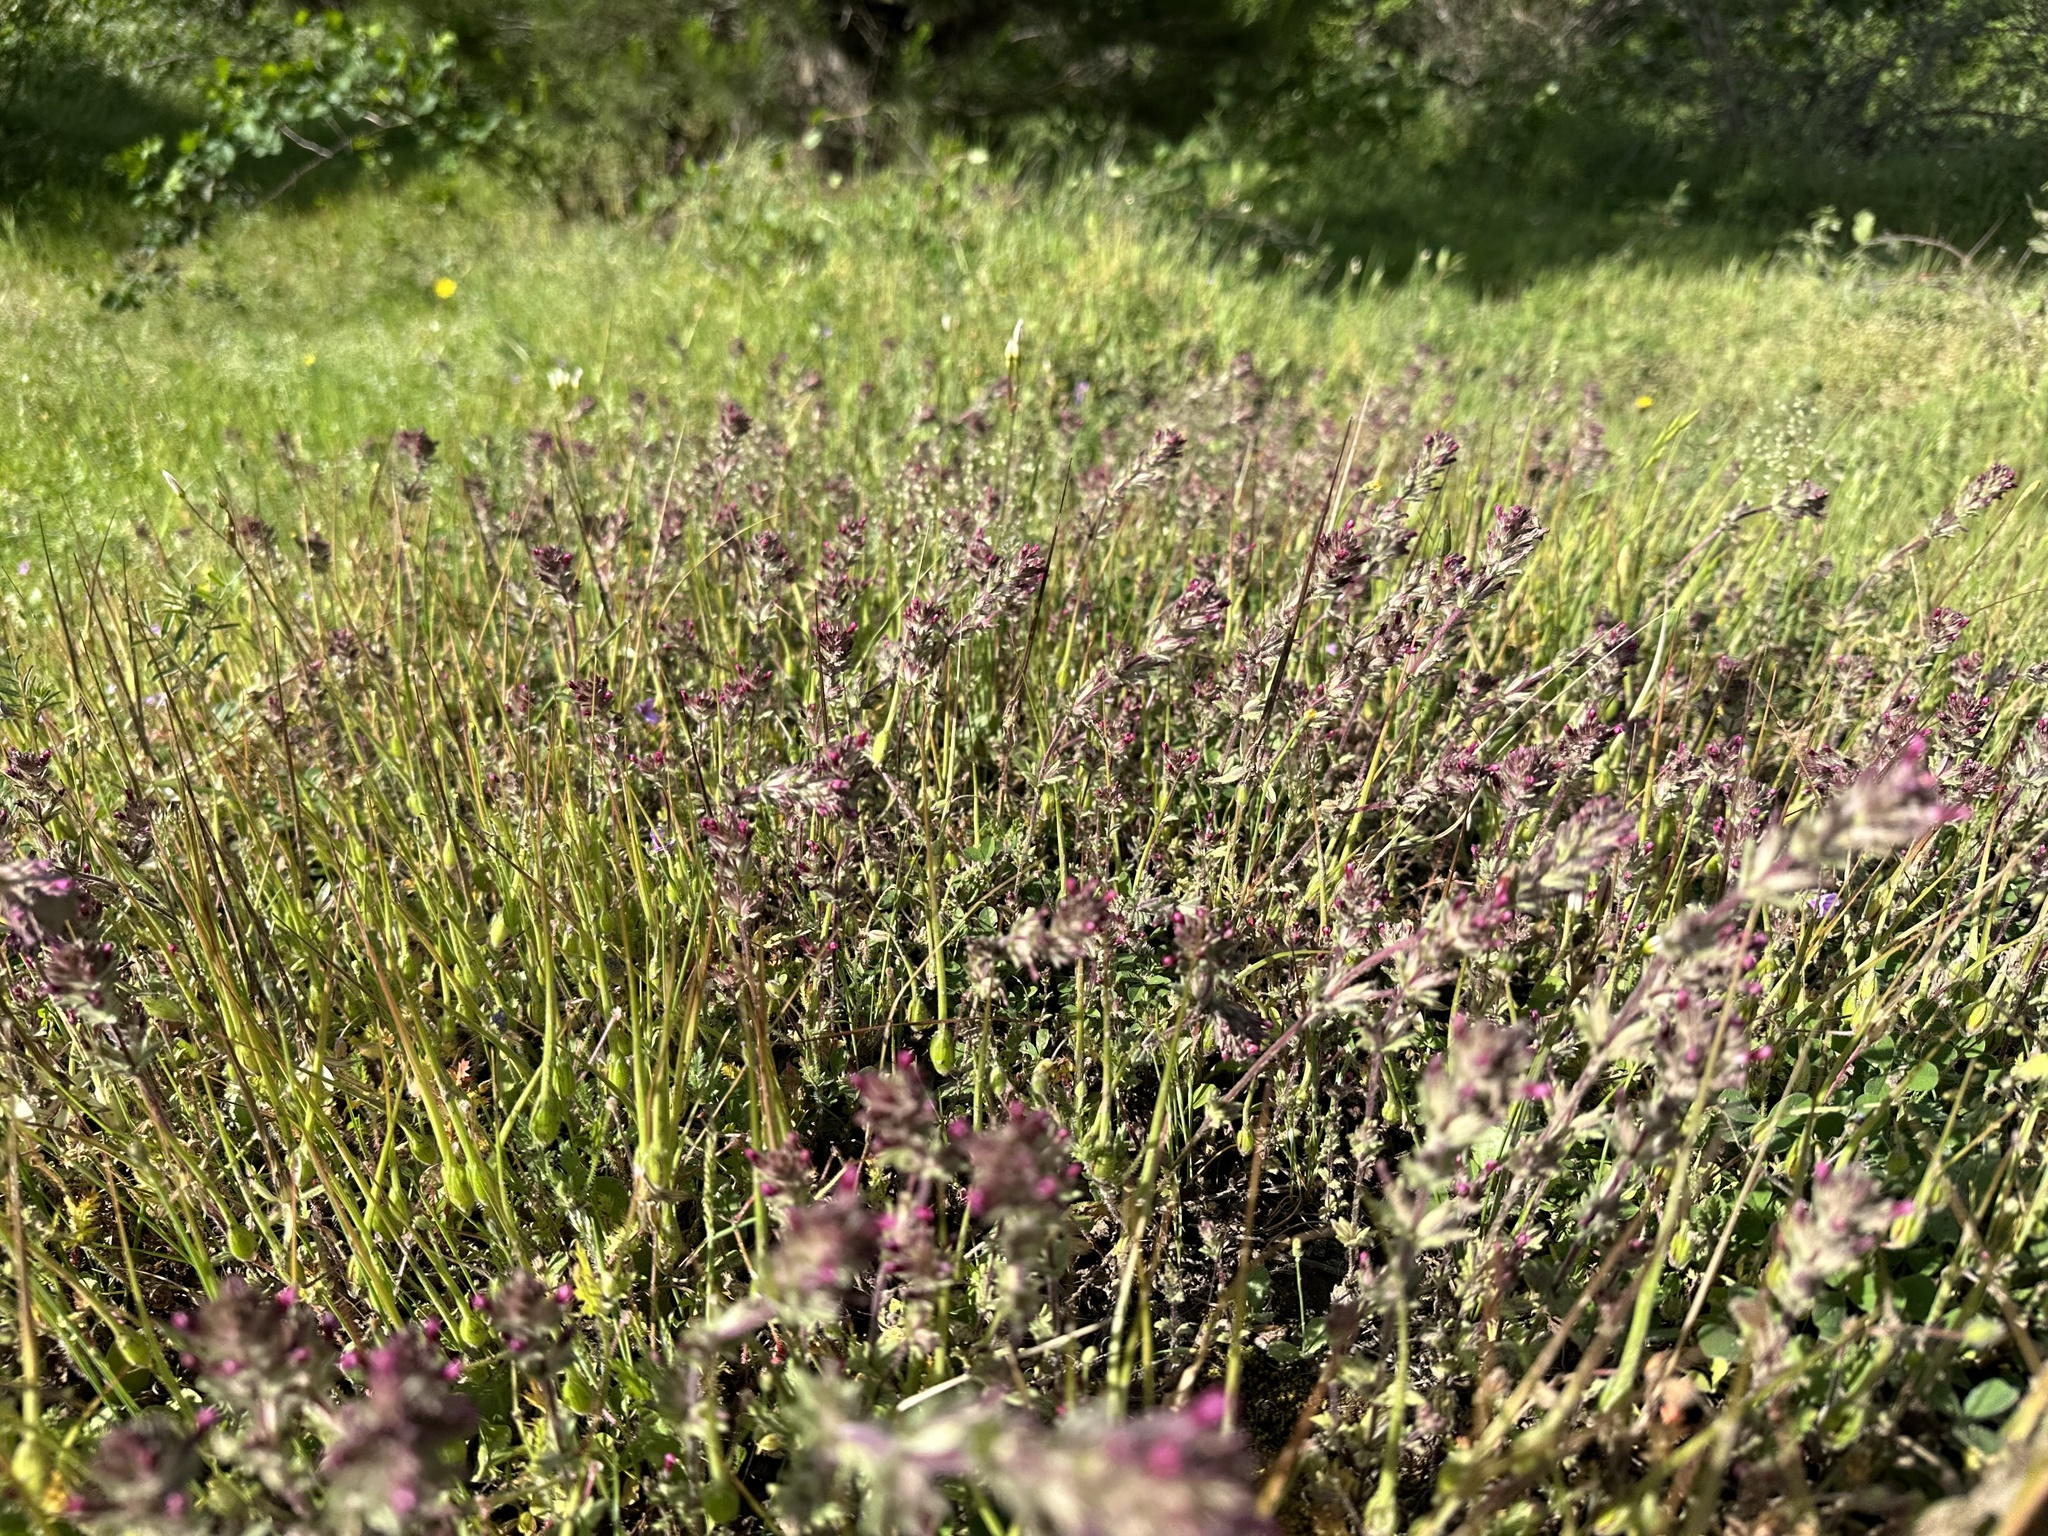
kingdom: Plantae
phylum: Tracheophyta
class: Magnoliopsida
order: Lamiales
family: Orobanchaceae
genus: Parentucellia
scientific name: Parentucellia latifolia
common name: Broadleaf glandweed
